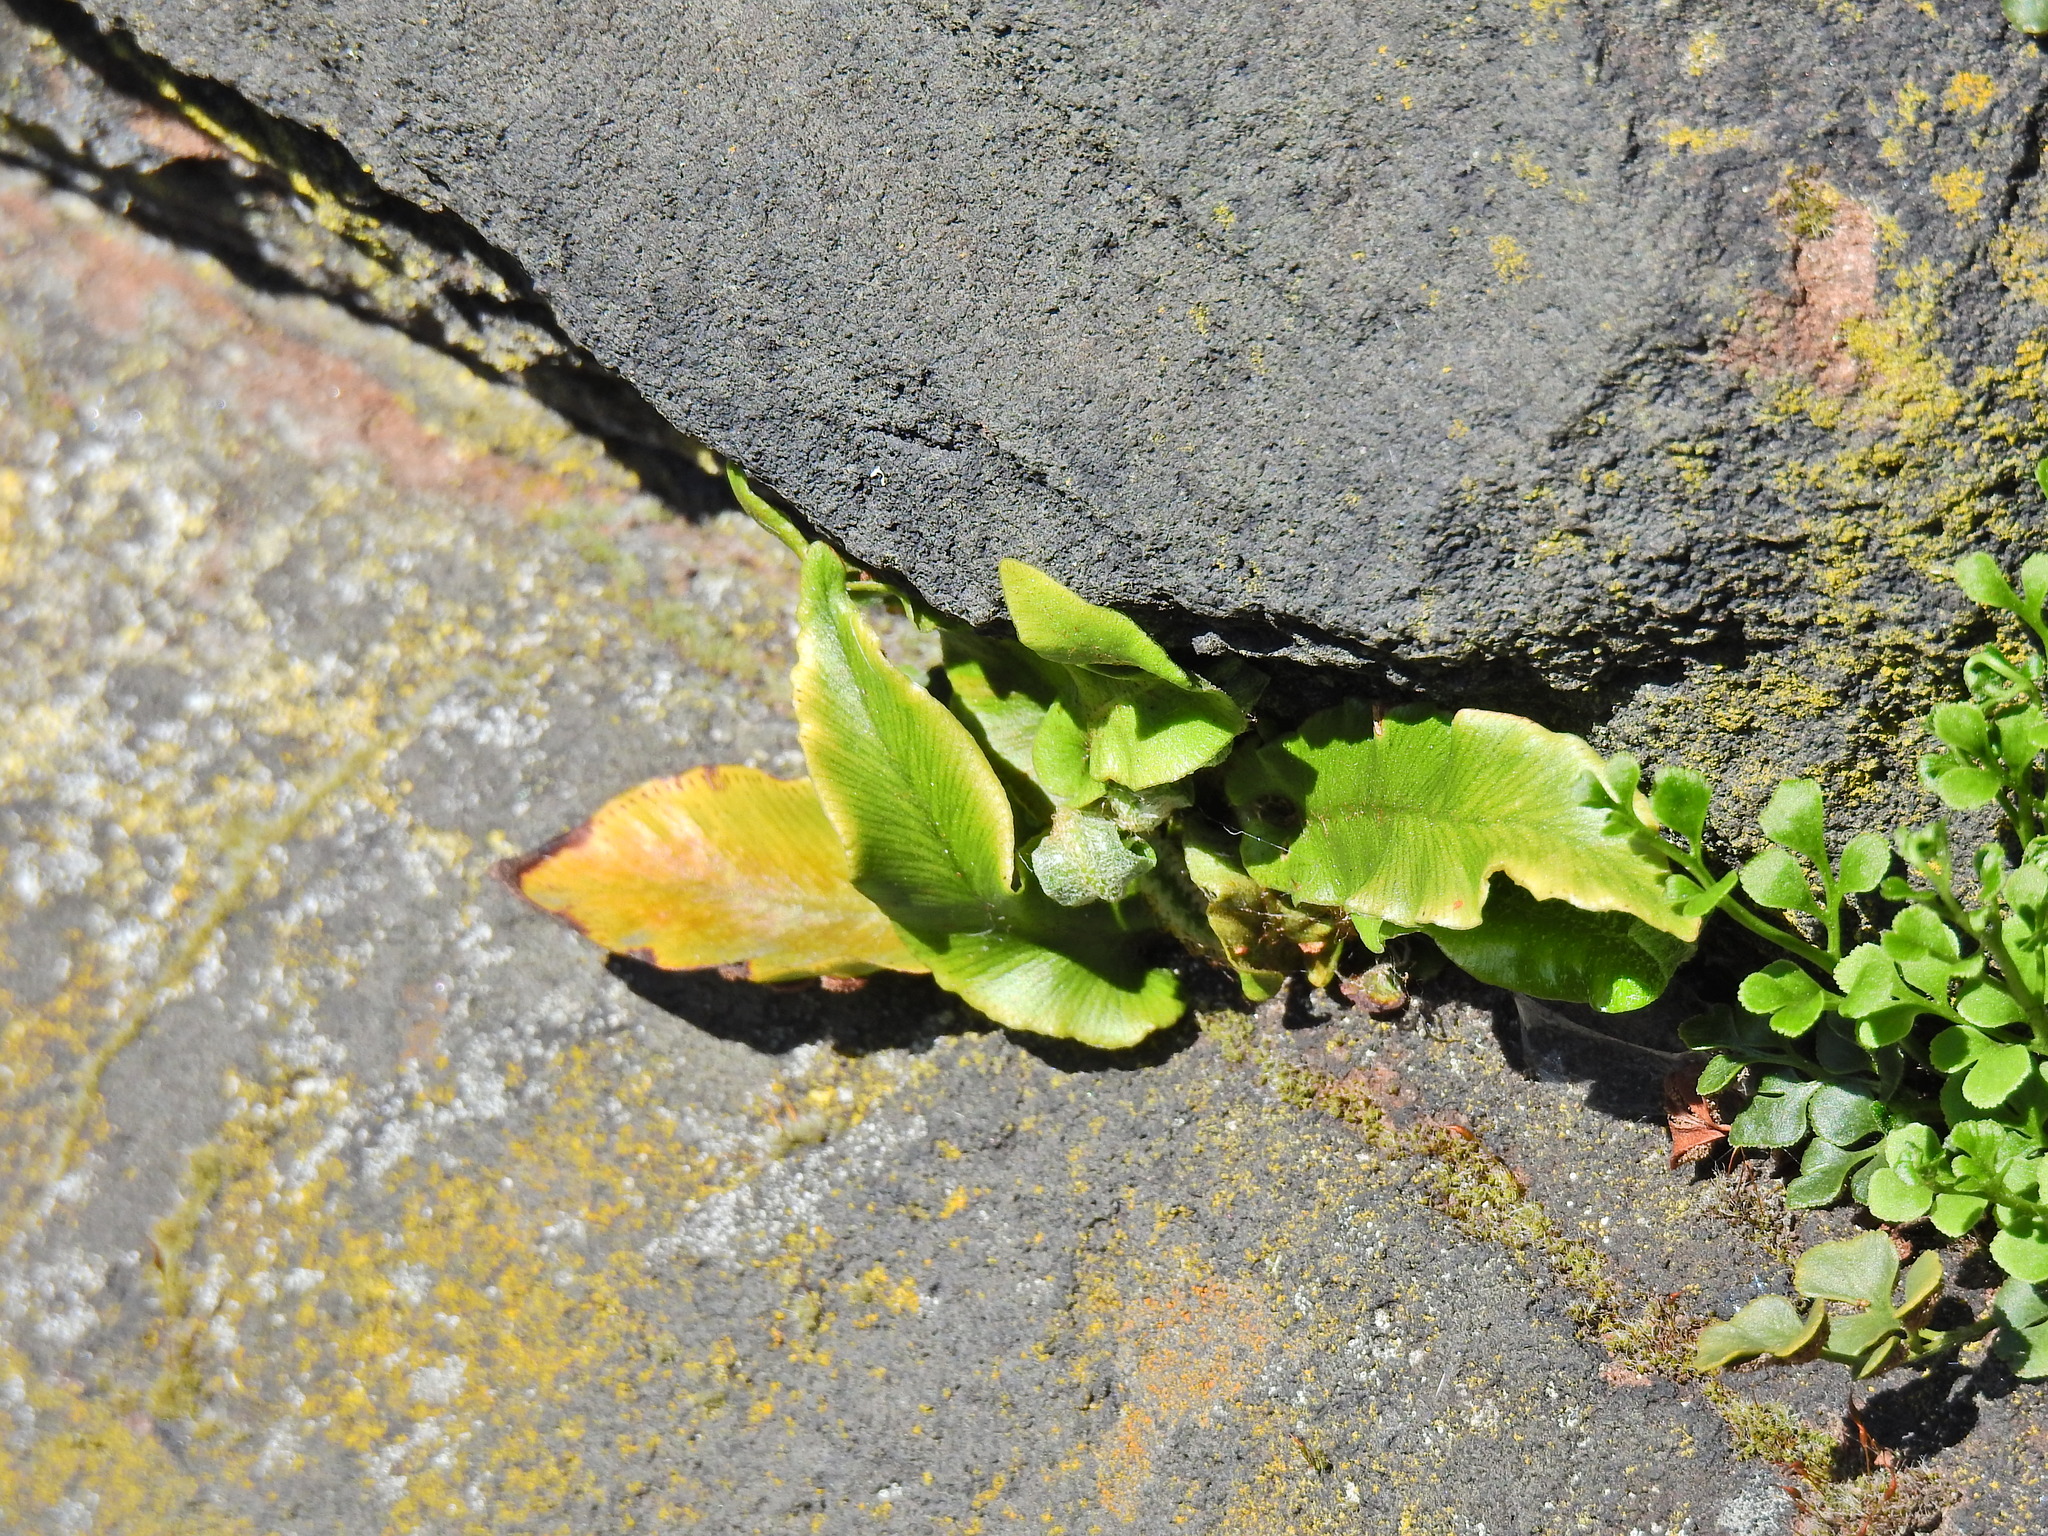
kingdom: Plantae
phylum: Tracheophyta
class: Polypodiopsida
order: Polypodiales
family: Aspleniaceae
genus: Asplenium
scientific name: Asplenium scolopendrium
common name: Hart's-tongue fern
